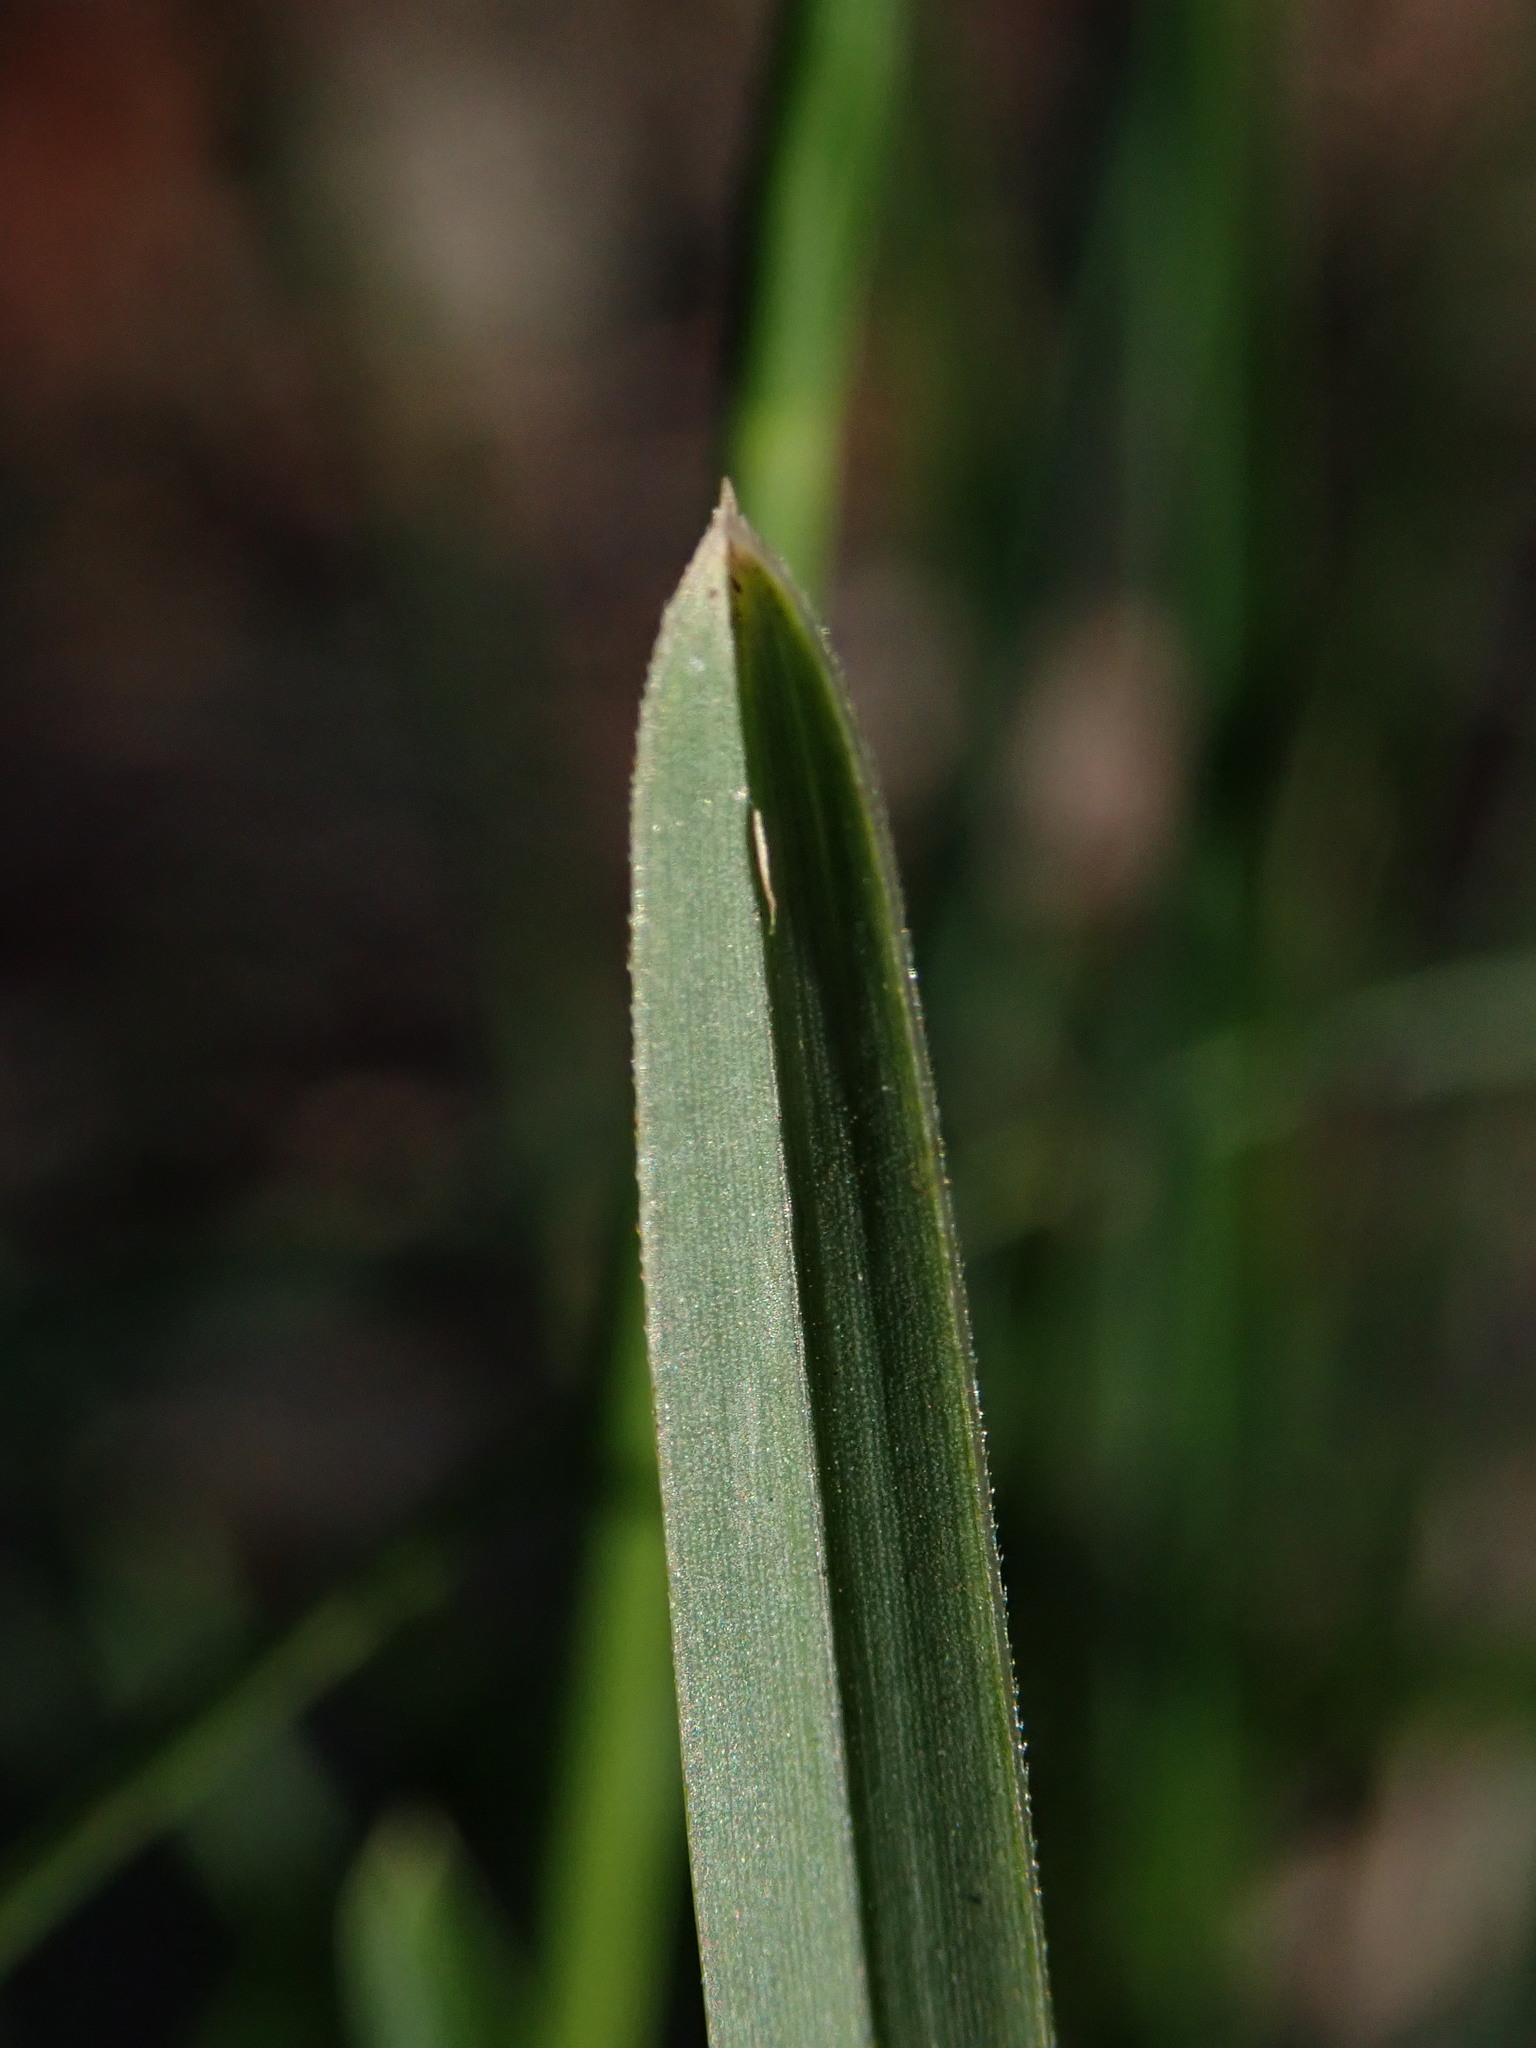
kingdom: Plantae
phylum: Tracheophyta
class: Liliopsida
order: Poales
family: Poaceae
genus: Sesleria
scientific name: Sesleria caerulea
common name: Blue moor-grass
